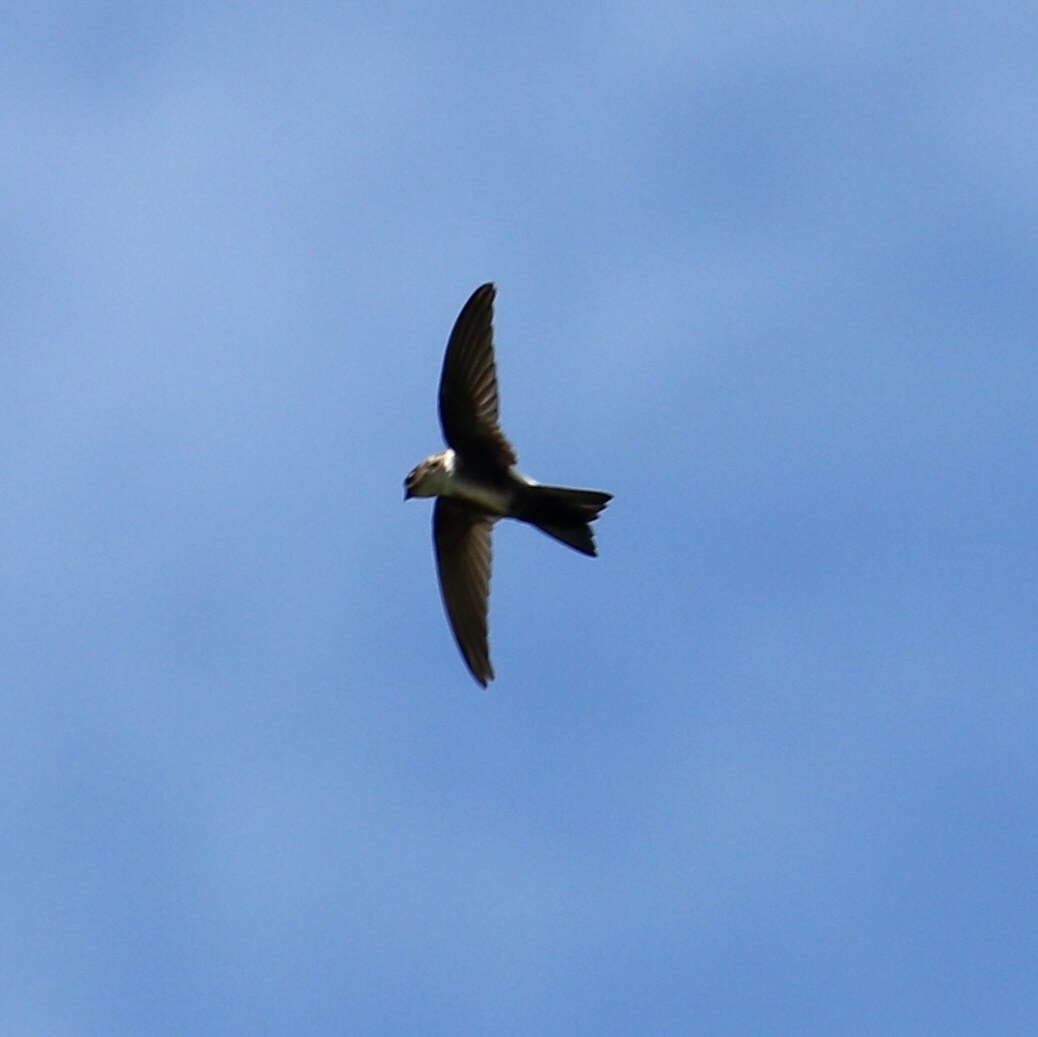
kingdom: Animalia
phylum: Chordata
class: Aves
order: Apodiformes
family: Apodidae
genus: Tachornis
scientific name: Tachornis phoenicobia
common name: Antillean palm swift
